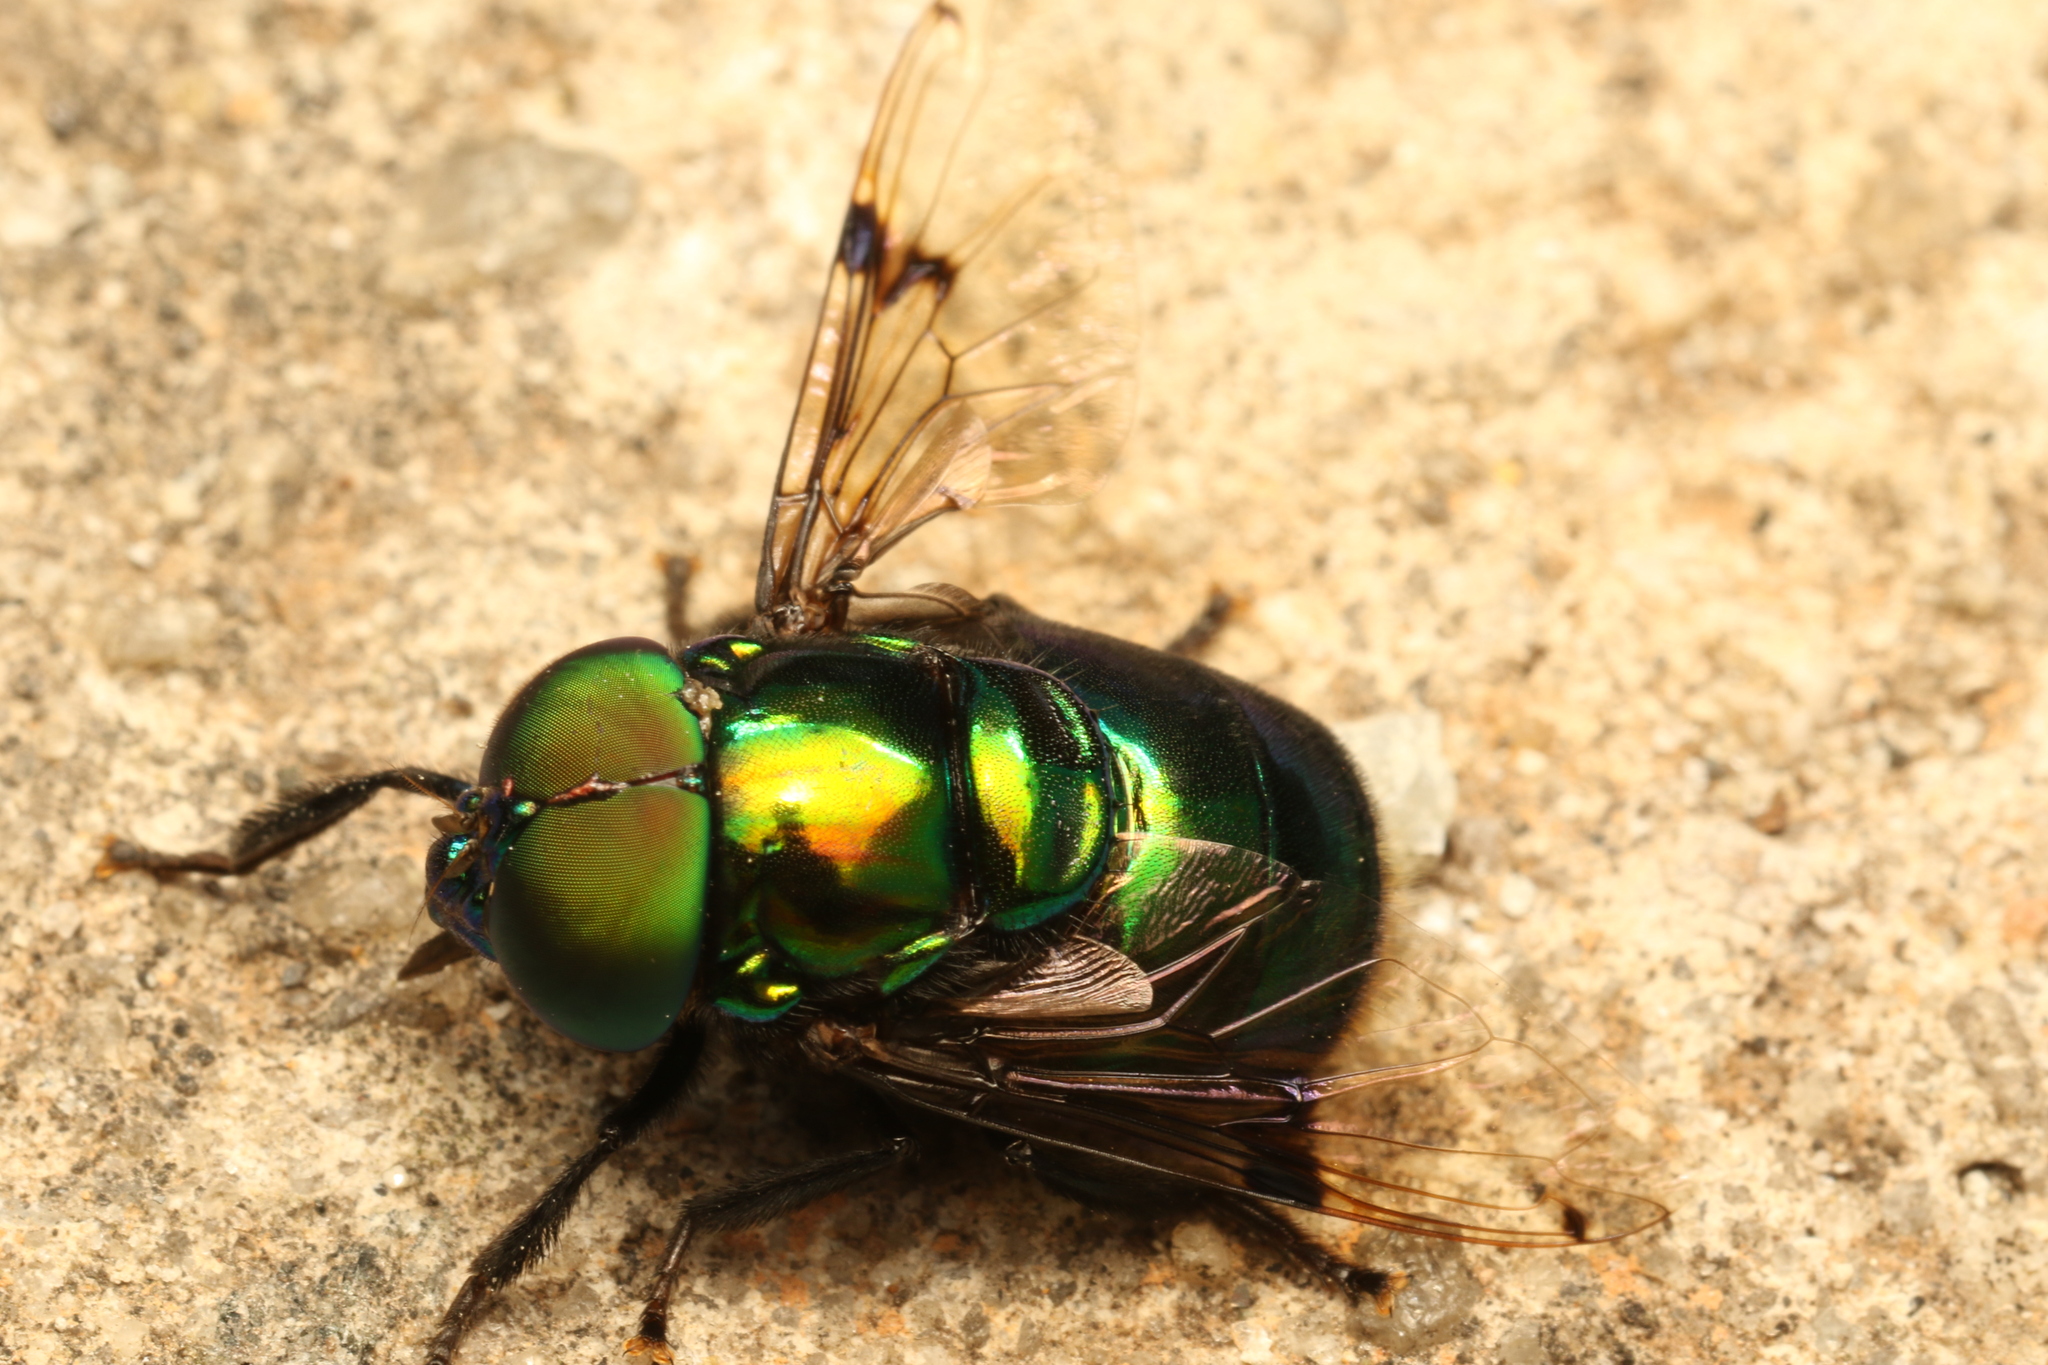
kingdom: Animalia
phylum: Arthropoda
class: Insecta
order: Diptera
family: Syrphidae
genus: Ornidia
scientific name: Ornidia major
